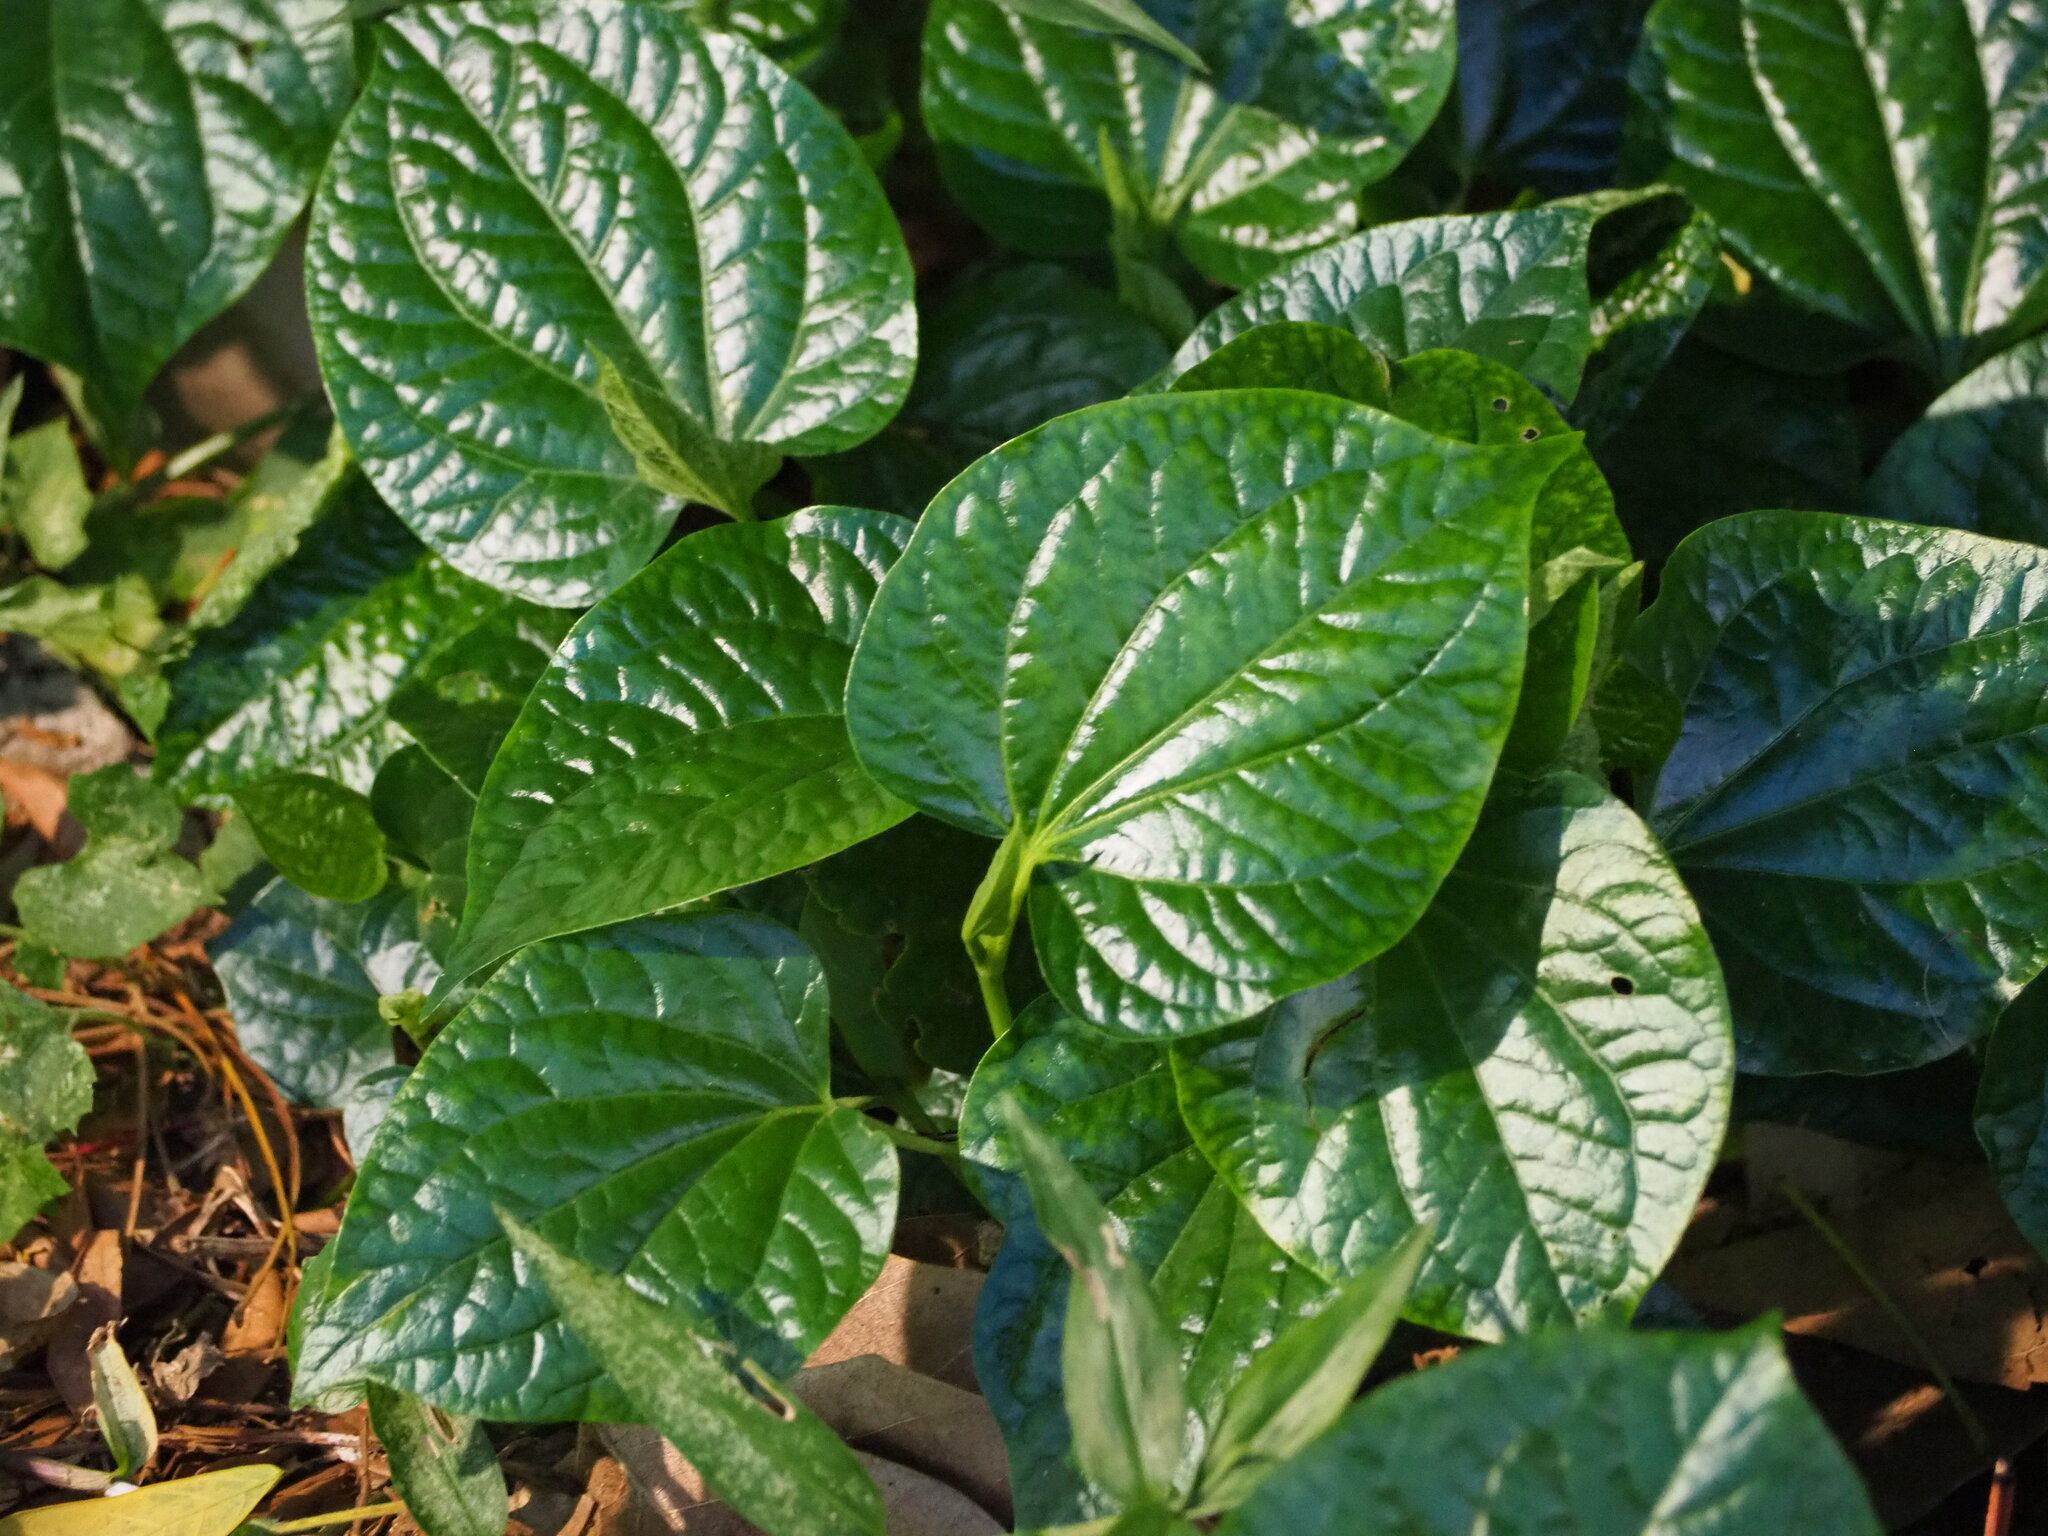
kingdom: Plantae
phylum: Tracheophyta
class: Magnoliopsida
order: Piperales
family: Piperaceae
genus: Piper
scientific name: Piper sarmentosum
